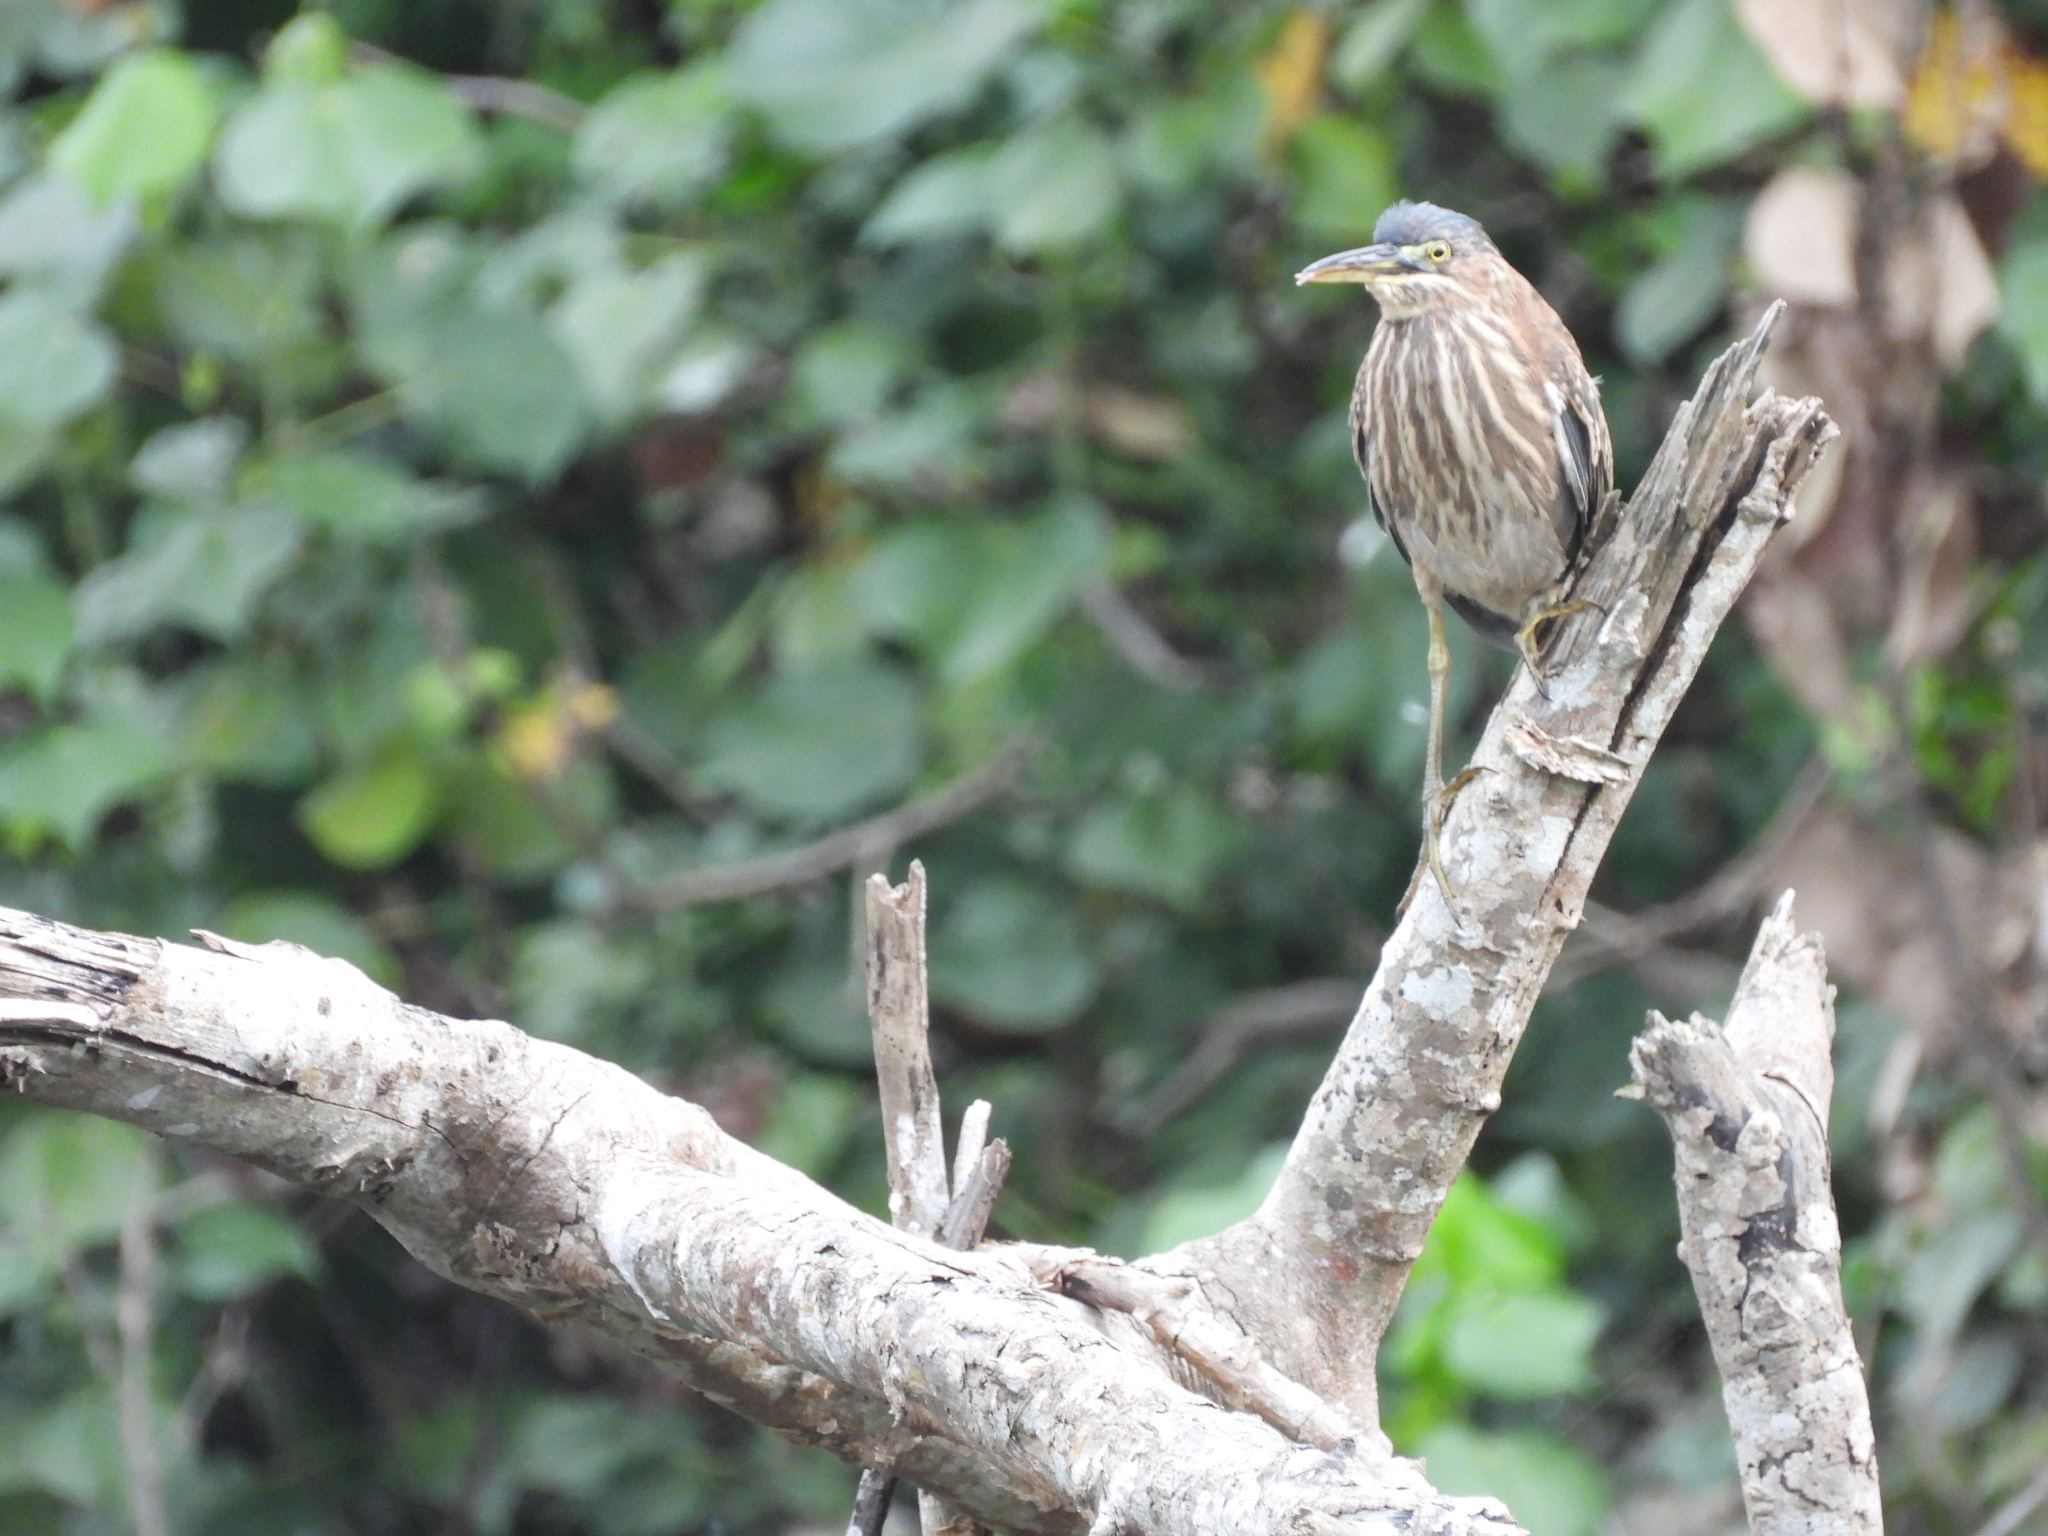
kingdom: Animalia
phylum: Chordata
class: Aves
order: Pelecaniformes
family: Ardeidae
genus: Butorides
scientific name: Butorides virescens
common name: Green heron
